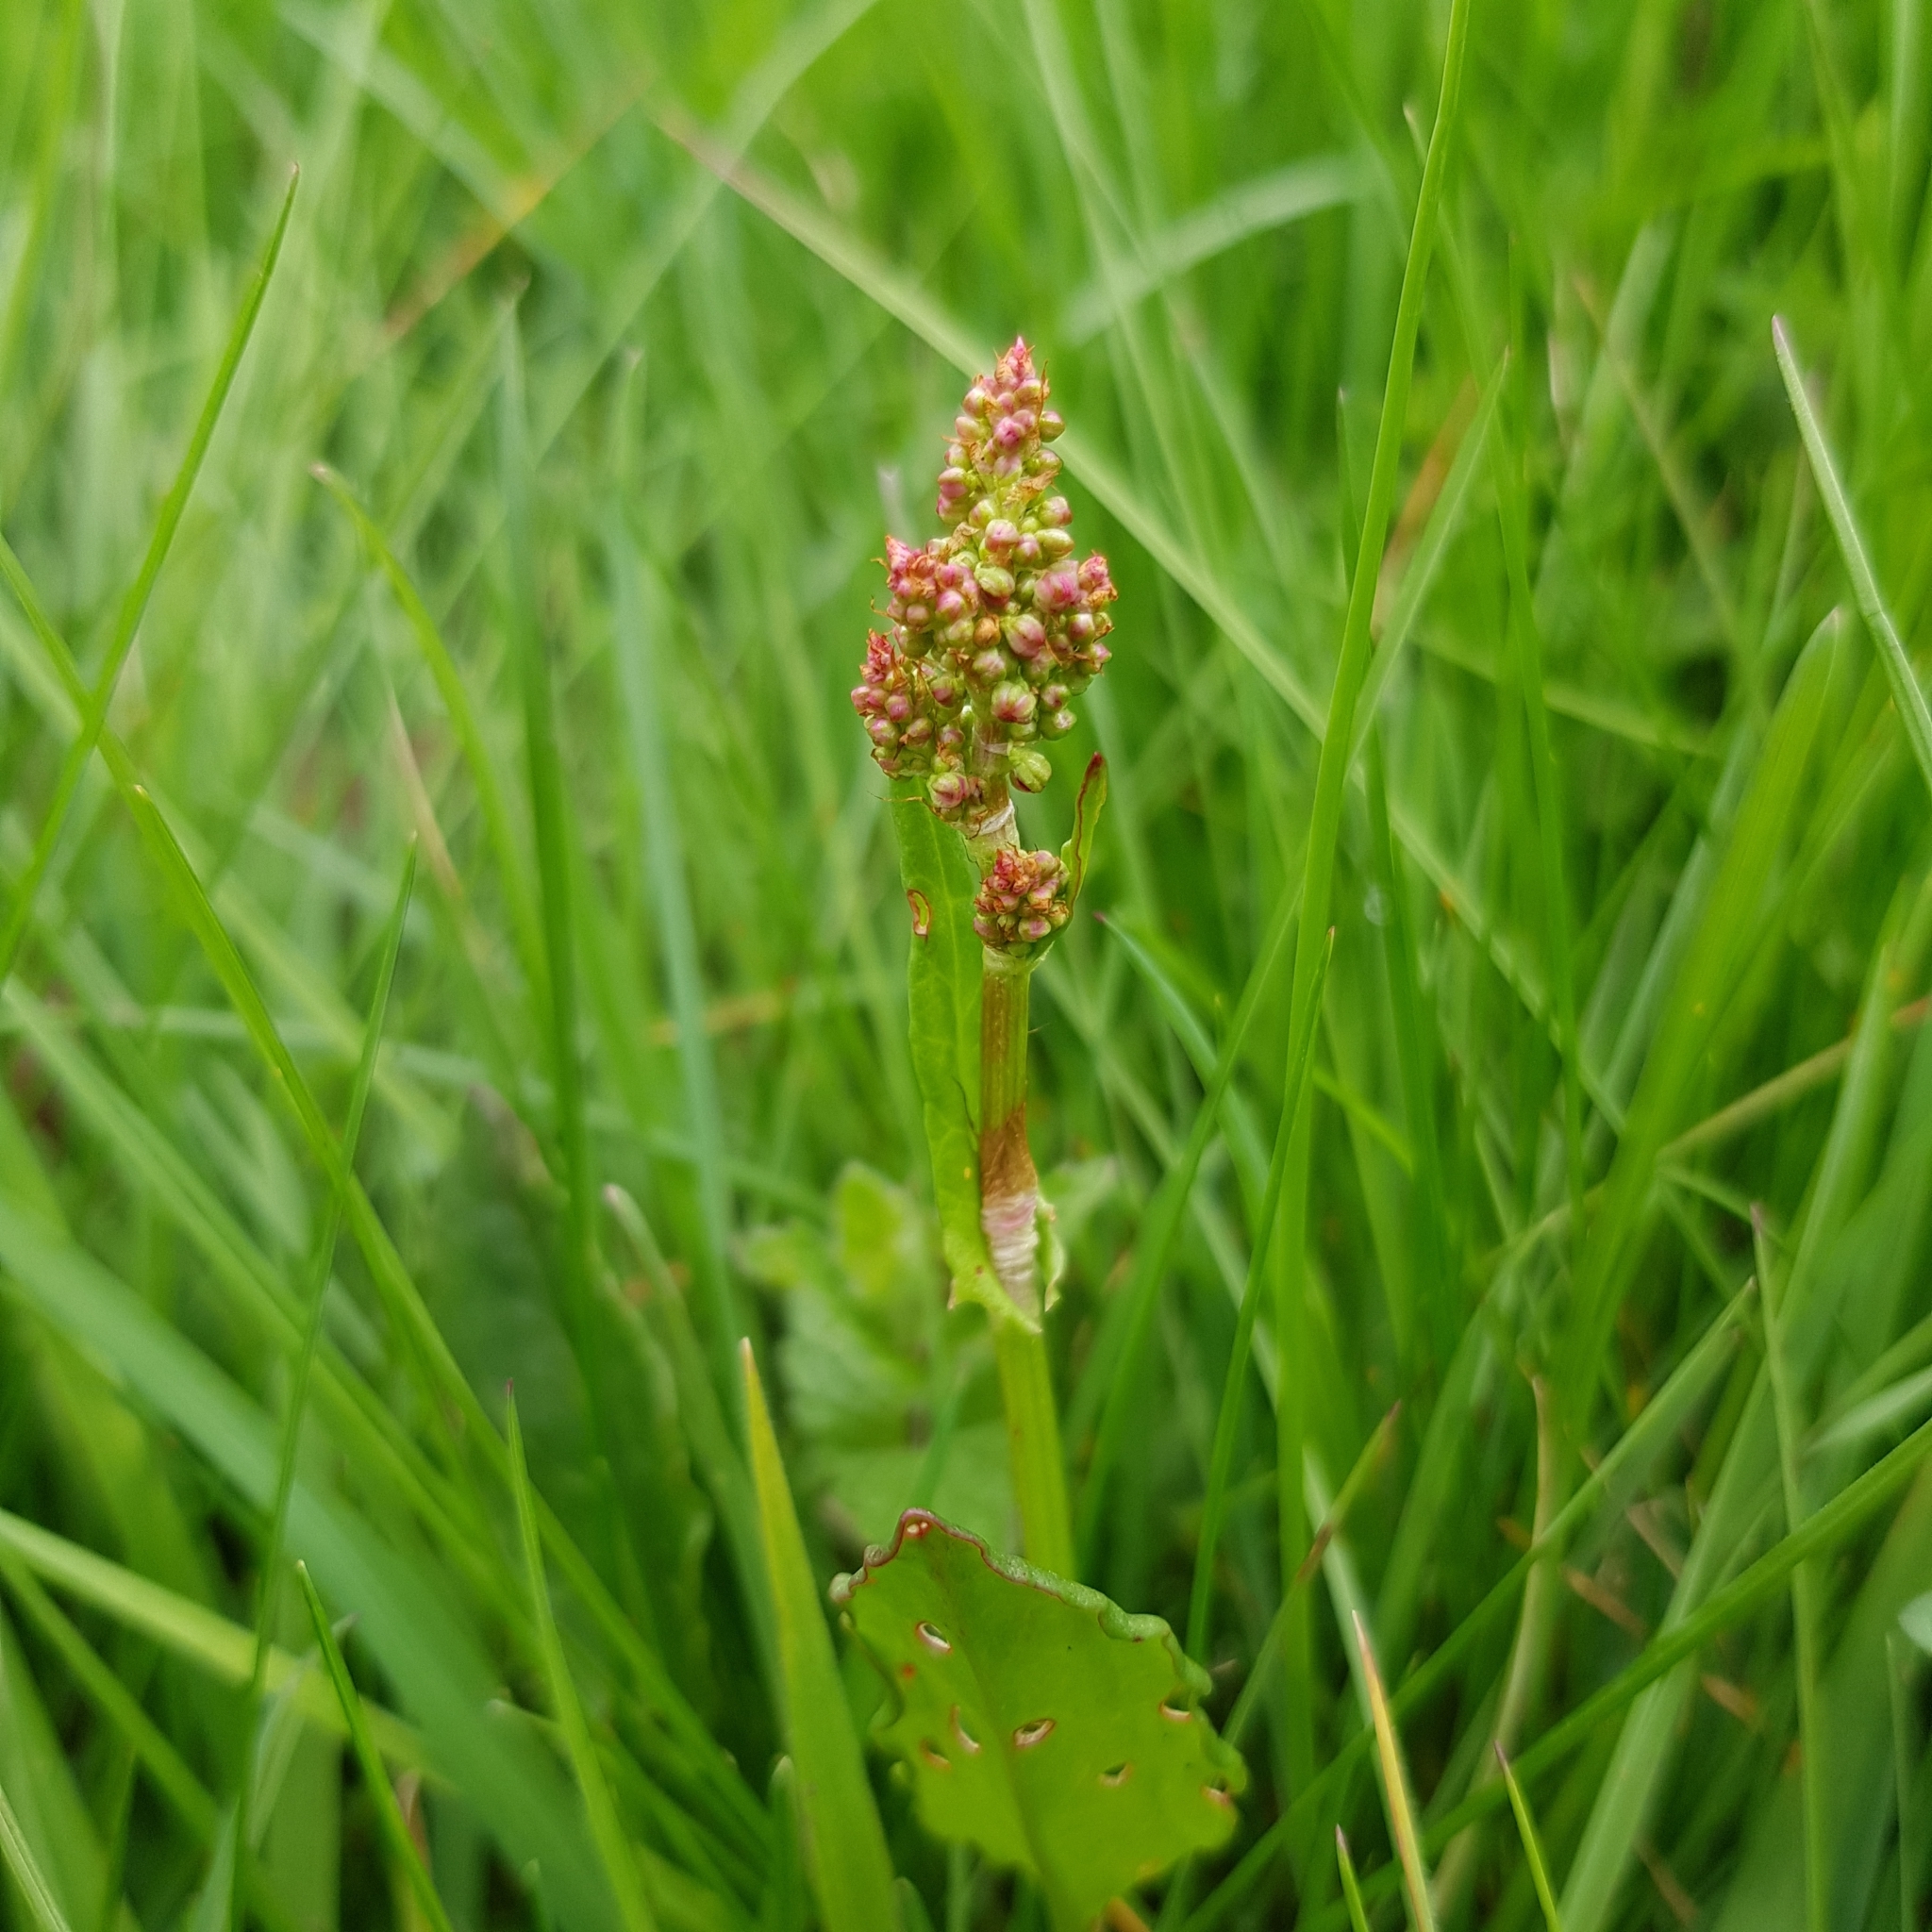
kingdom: Plantae
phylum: Tracheophyta
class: Magnoliopsida
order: Caryophyllales
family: Polygonaceae
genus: Rumex
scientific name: Rumex acetosa
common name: Garden sorrel
